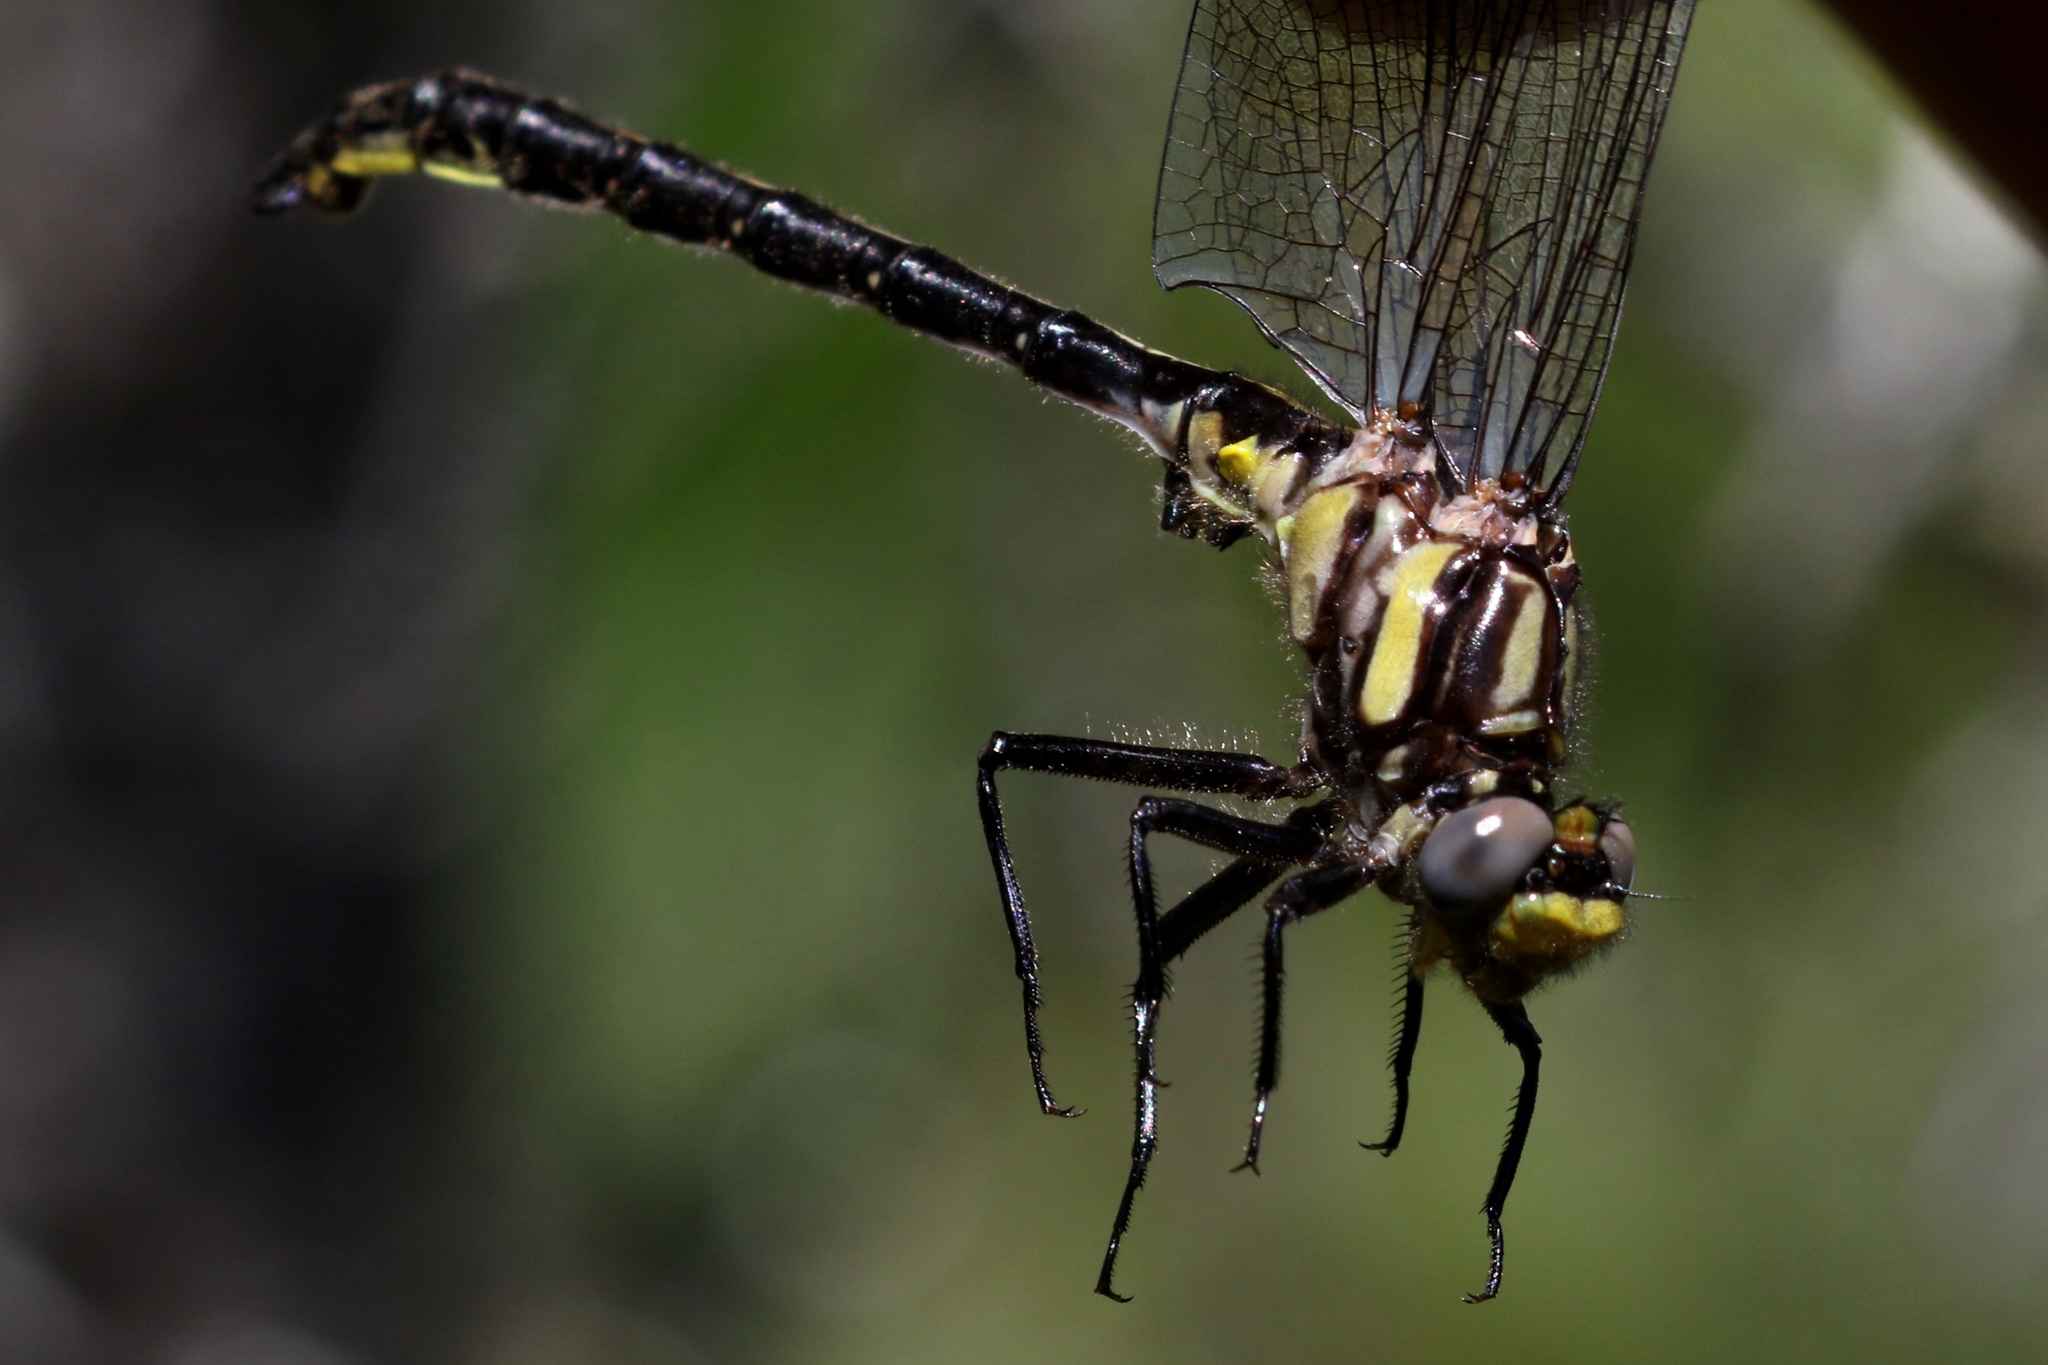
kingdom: Animalia
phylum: Arthropoda
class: Insecta
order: Odonata
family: Gomphidae
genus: Phanogomphus
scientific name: Phanogomphus descriptus
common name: Harpoon clubtail
